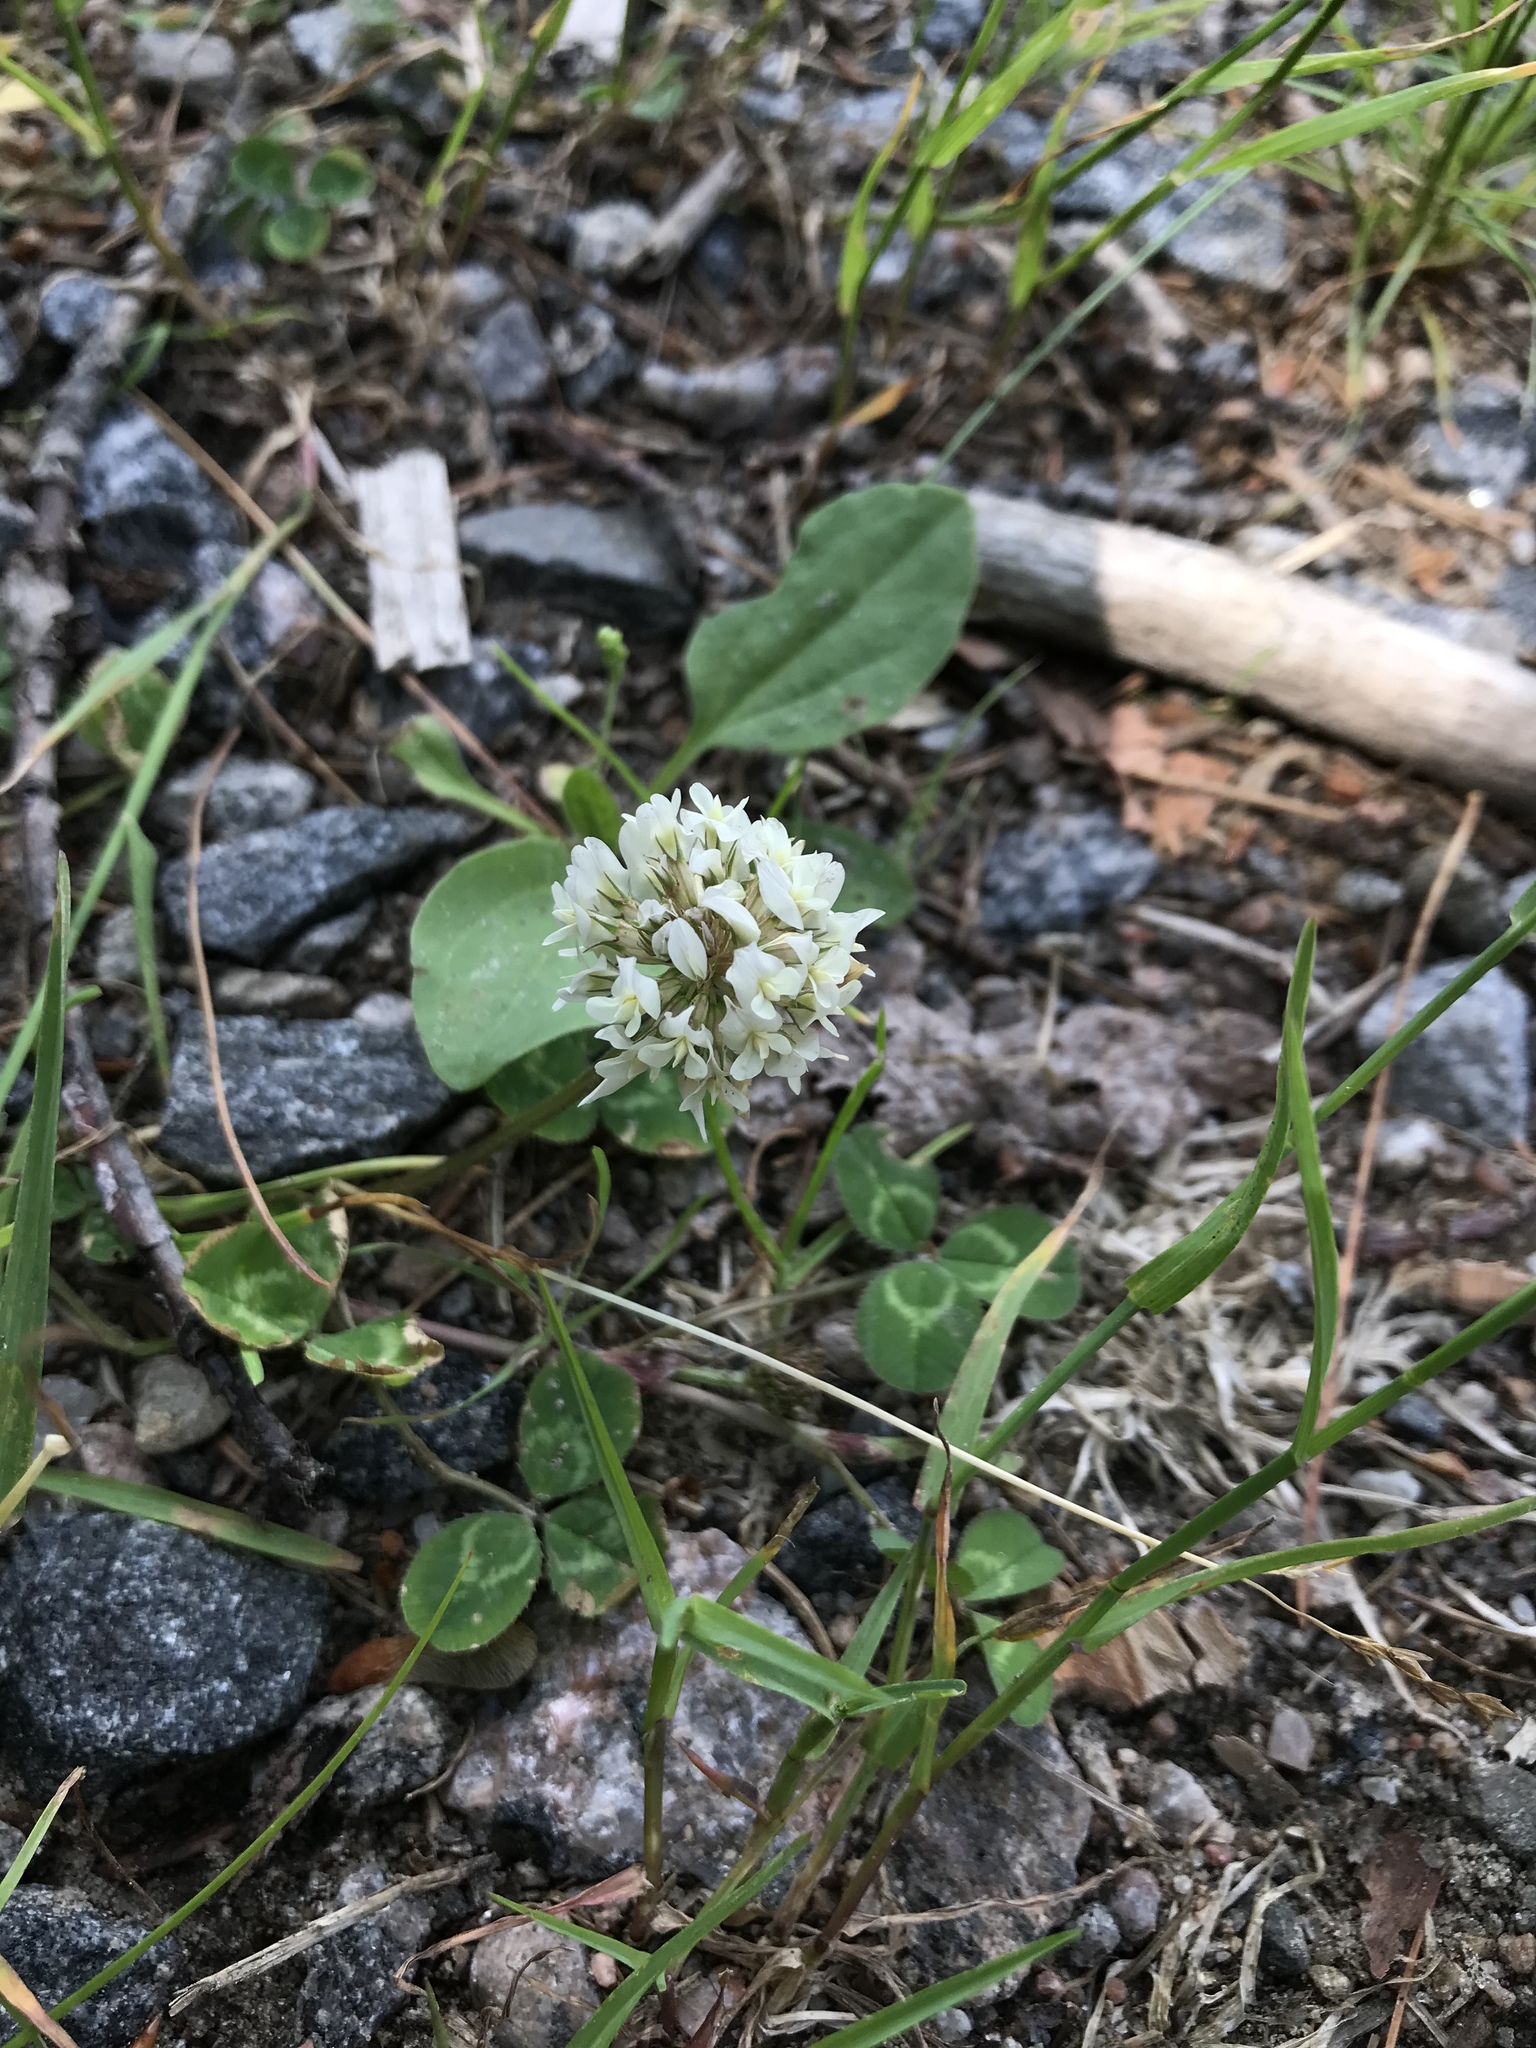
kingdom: Plantae
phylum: Tracheophyta
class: Magnoliopsida
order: Fabales
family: Fabaceae
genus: Trifolium
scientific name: Trifolium repens
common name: White clover
